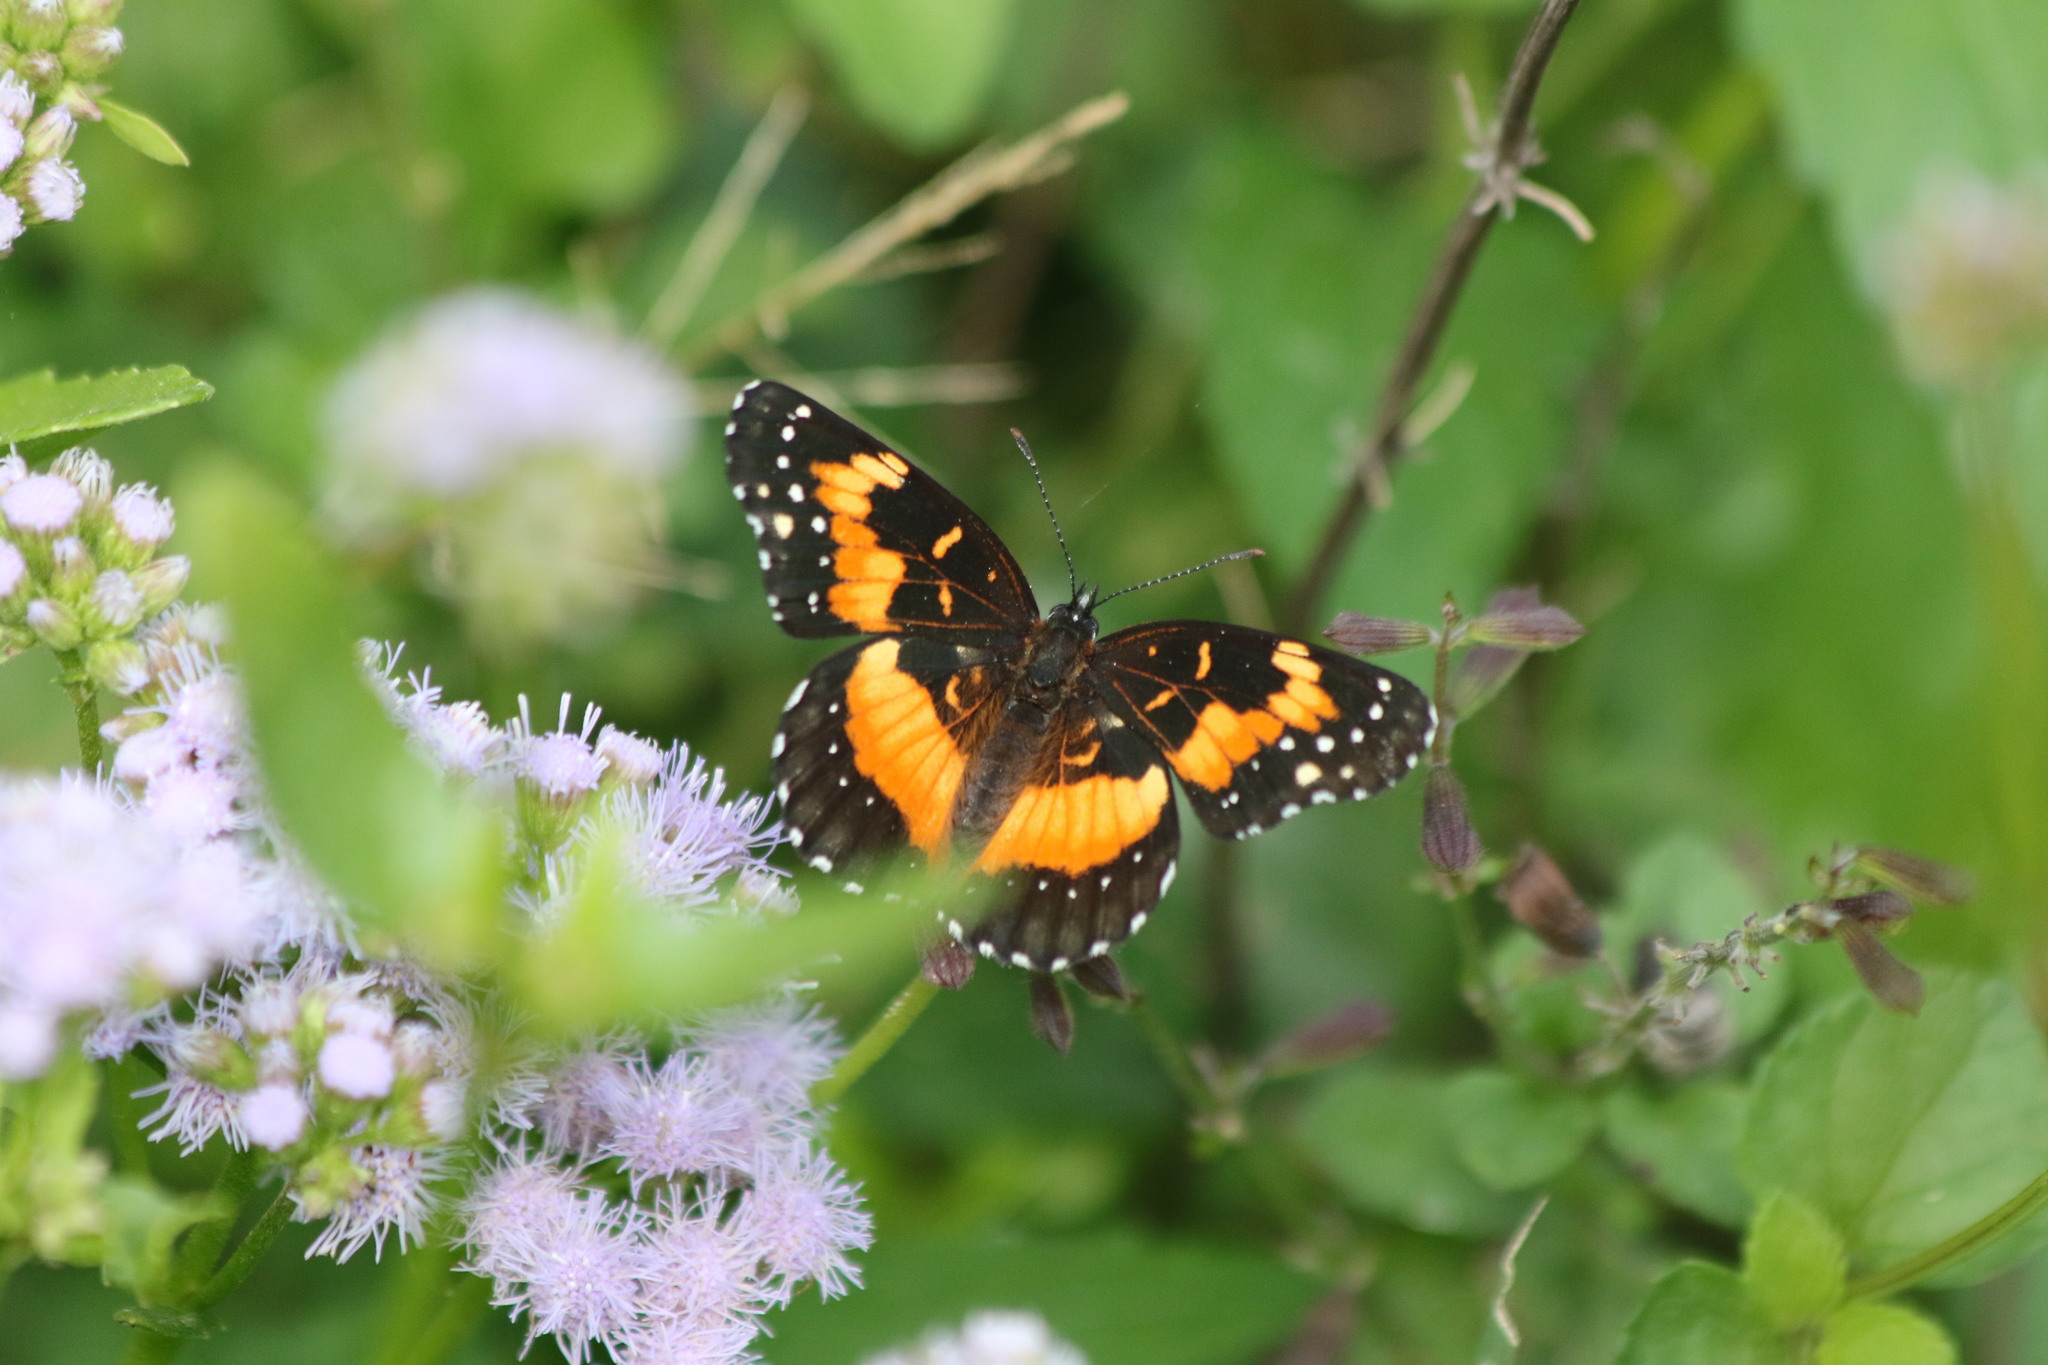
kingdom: Animalia
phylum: Arthropoda
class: Insecta
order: Lepidoptera
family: Nymphalidae
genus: Chlosyne
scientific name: Chlosyne lacinia
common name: Bordered patch
